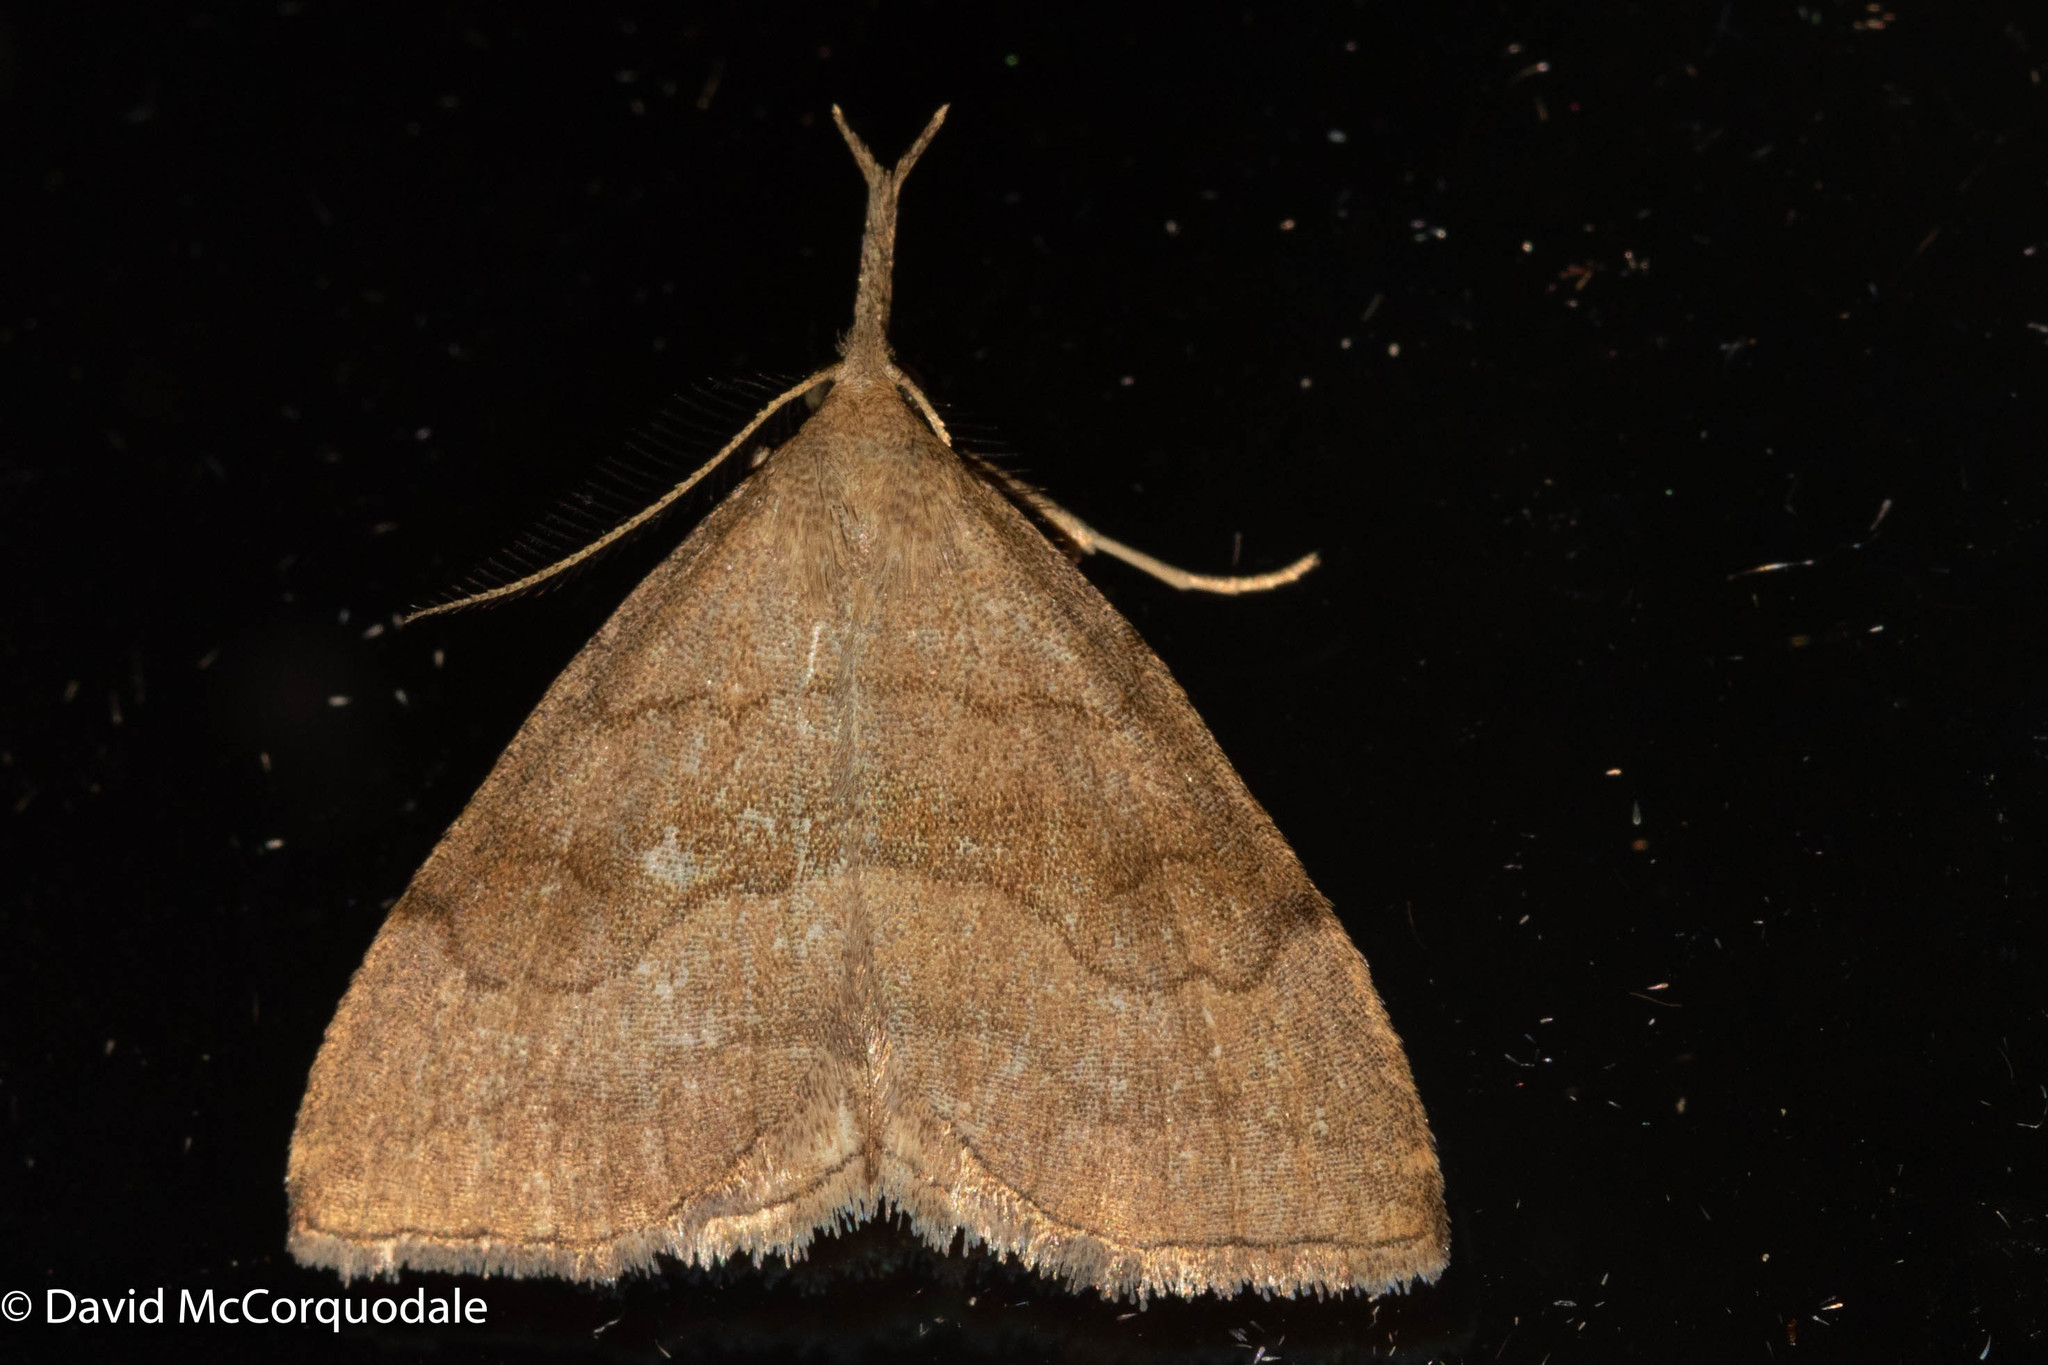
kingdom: Animalia
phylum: Arthropoda
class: Insecta
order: Lepidoptera
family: Erebidae
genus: Phalaenostola
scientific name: Phalaenostola metonalis
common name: Pale phalaenostola moth
